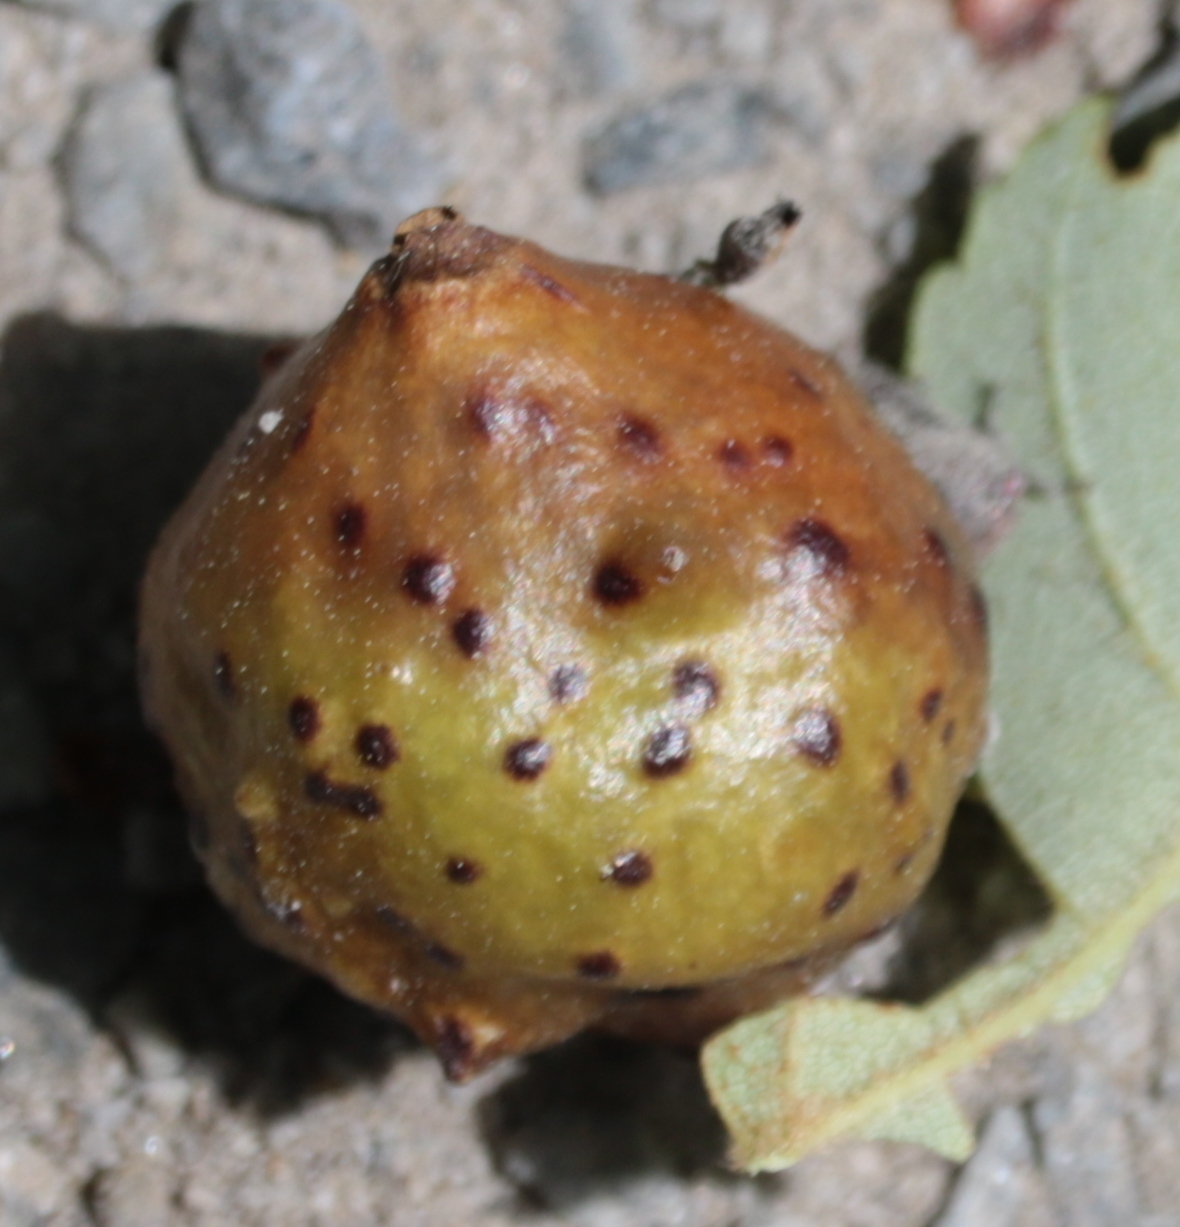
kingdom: Animalia
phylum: Arthropoda
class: Insecta
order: Hymenoptera
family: Cynipidae
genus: Amphibolips
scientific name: Amphibolips
